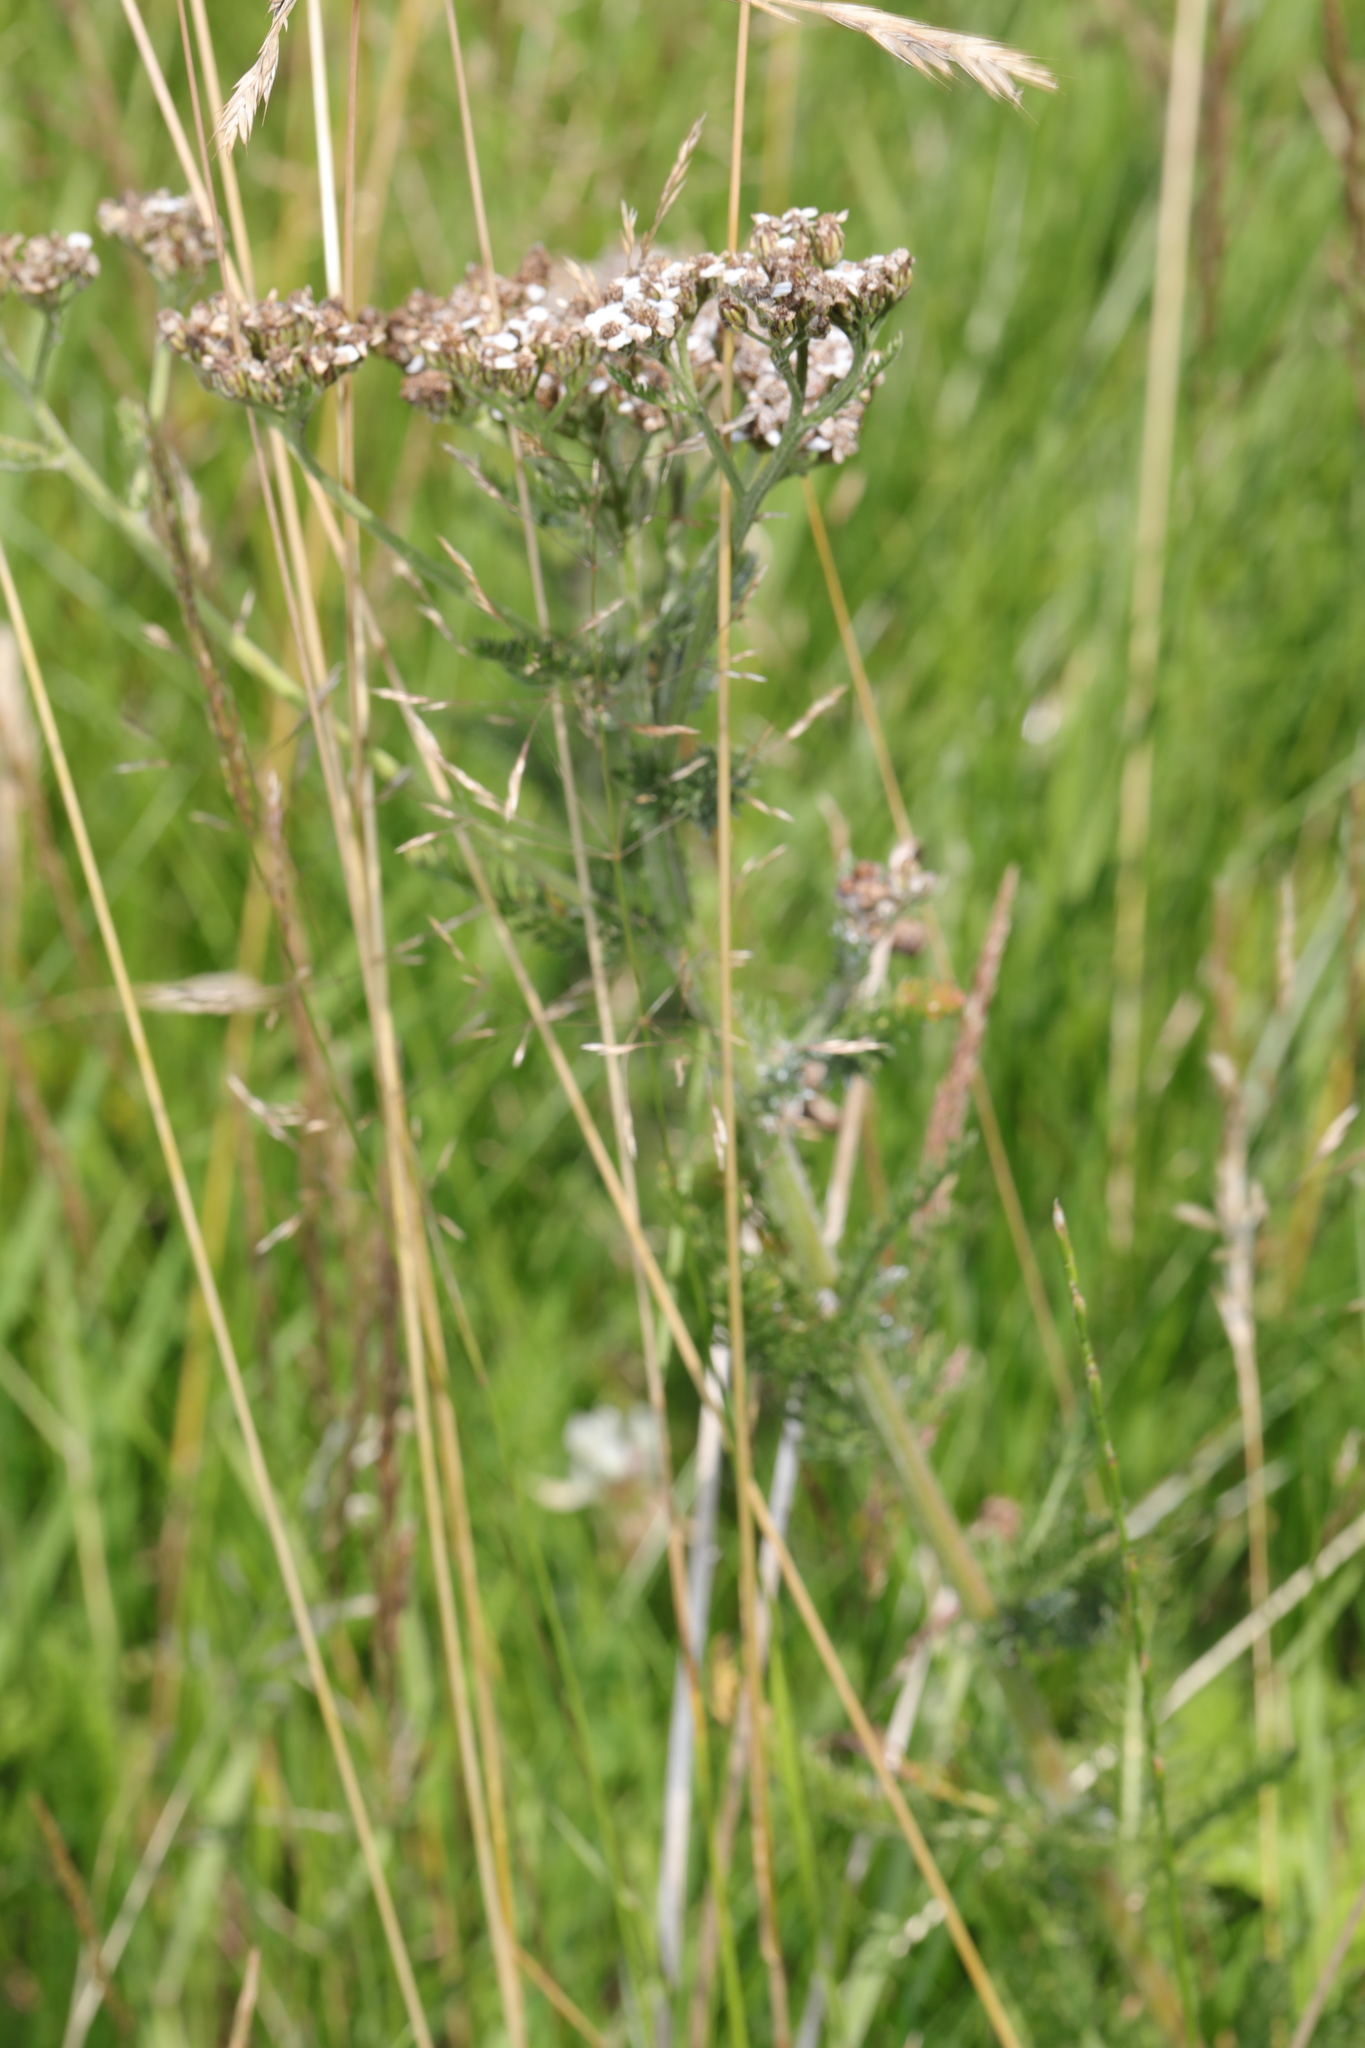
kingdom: Plantae
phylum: Tracheophyta
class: Magnoliopsida
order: Asterales
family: Asteraceae
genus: Achillea
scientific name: Achillea millefolium
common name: Yarrow
